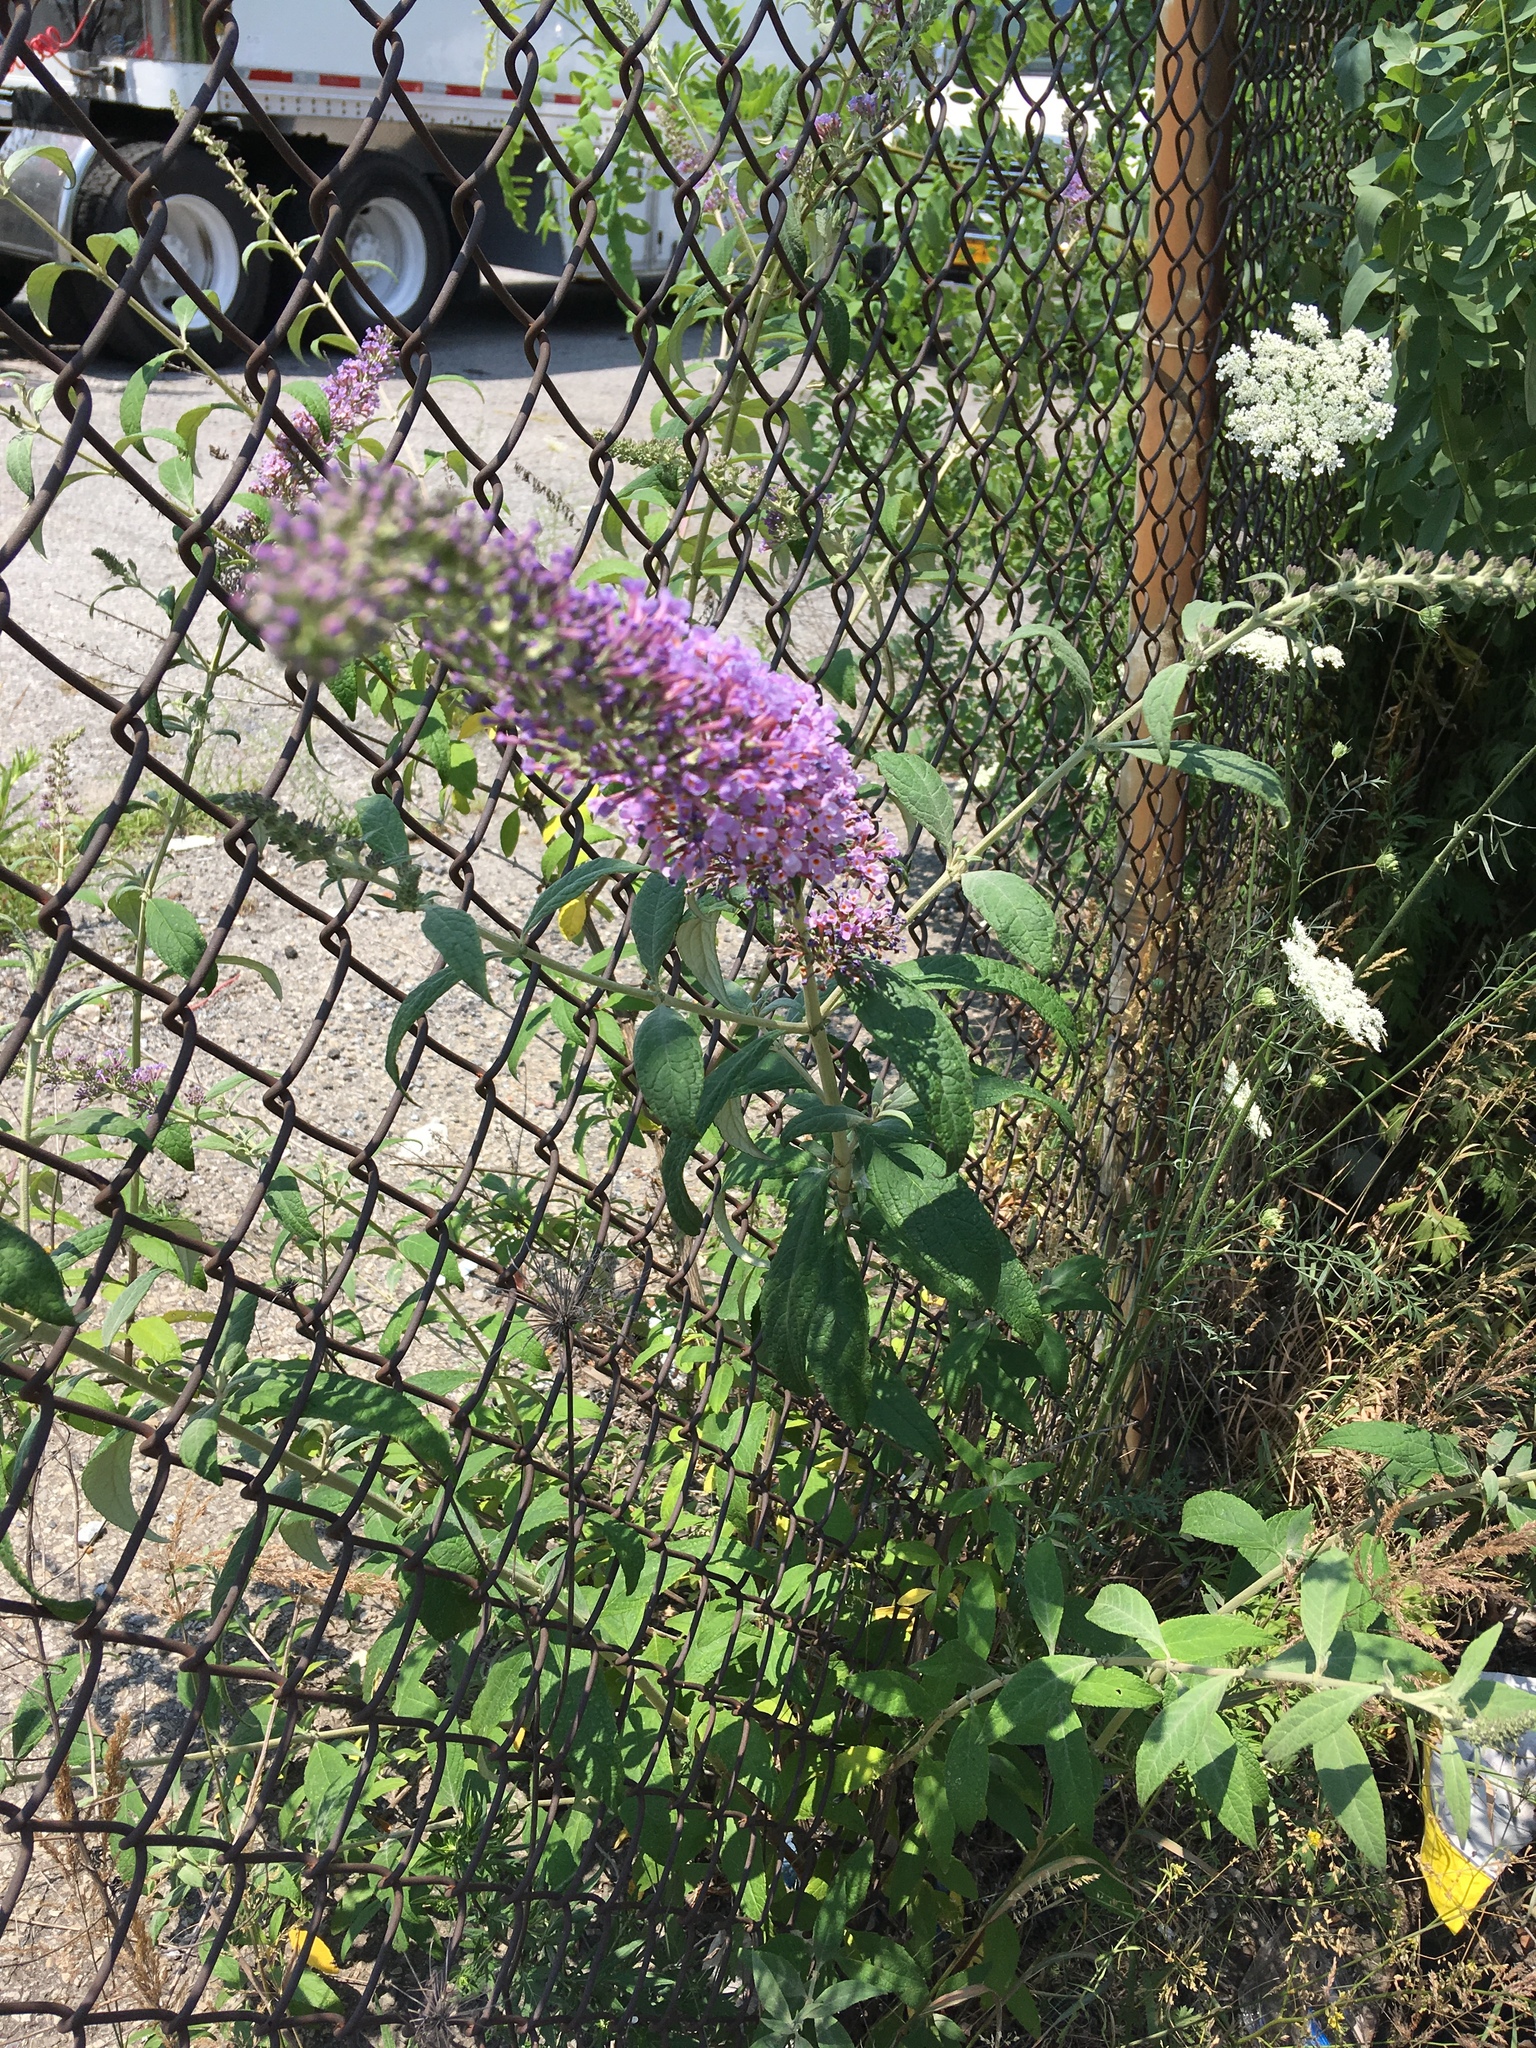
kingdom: Plantae
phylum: Tracheophyta
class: Magnoliopsida
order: Lamiales
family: Scrophulariaceae
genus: Buddleja
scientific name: Buddleja davidii
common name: Butterfly-bush
